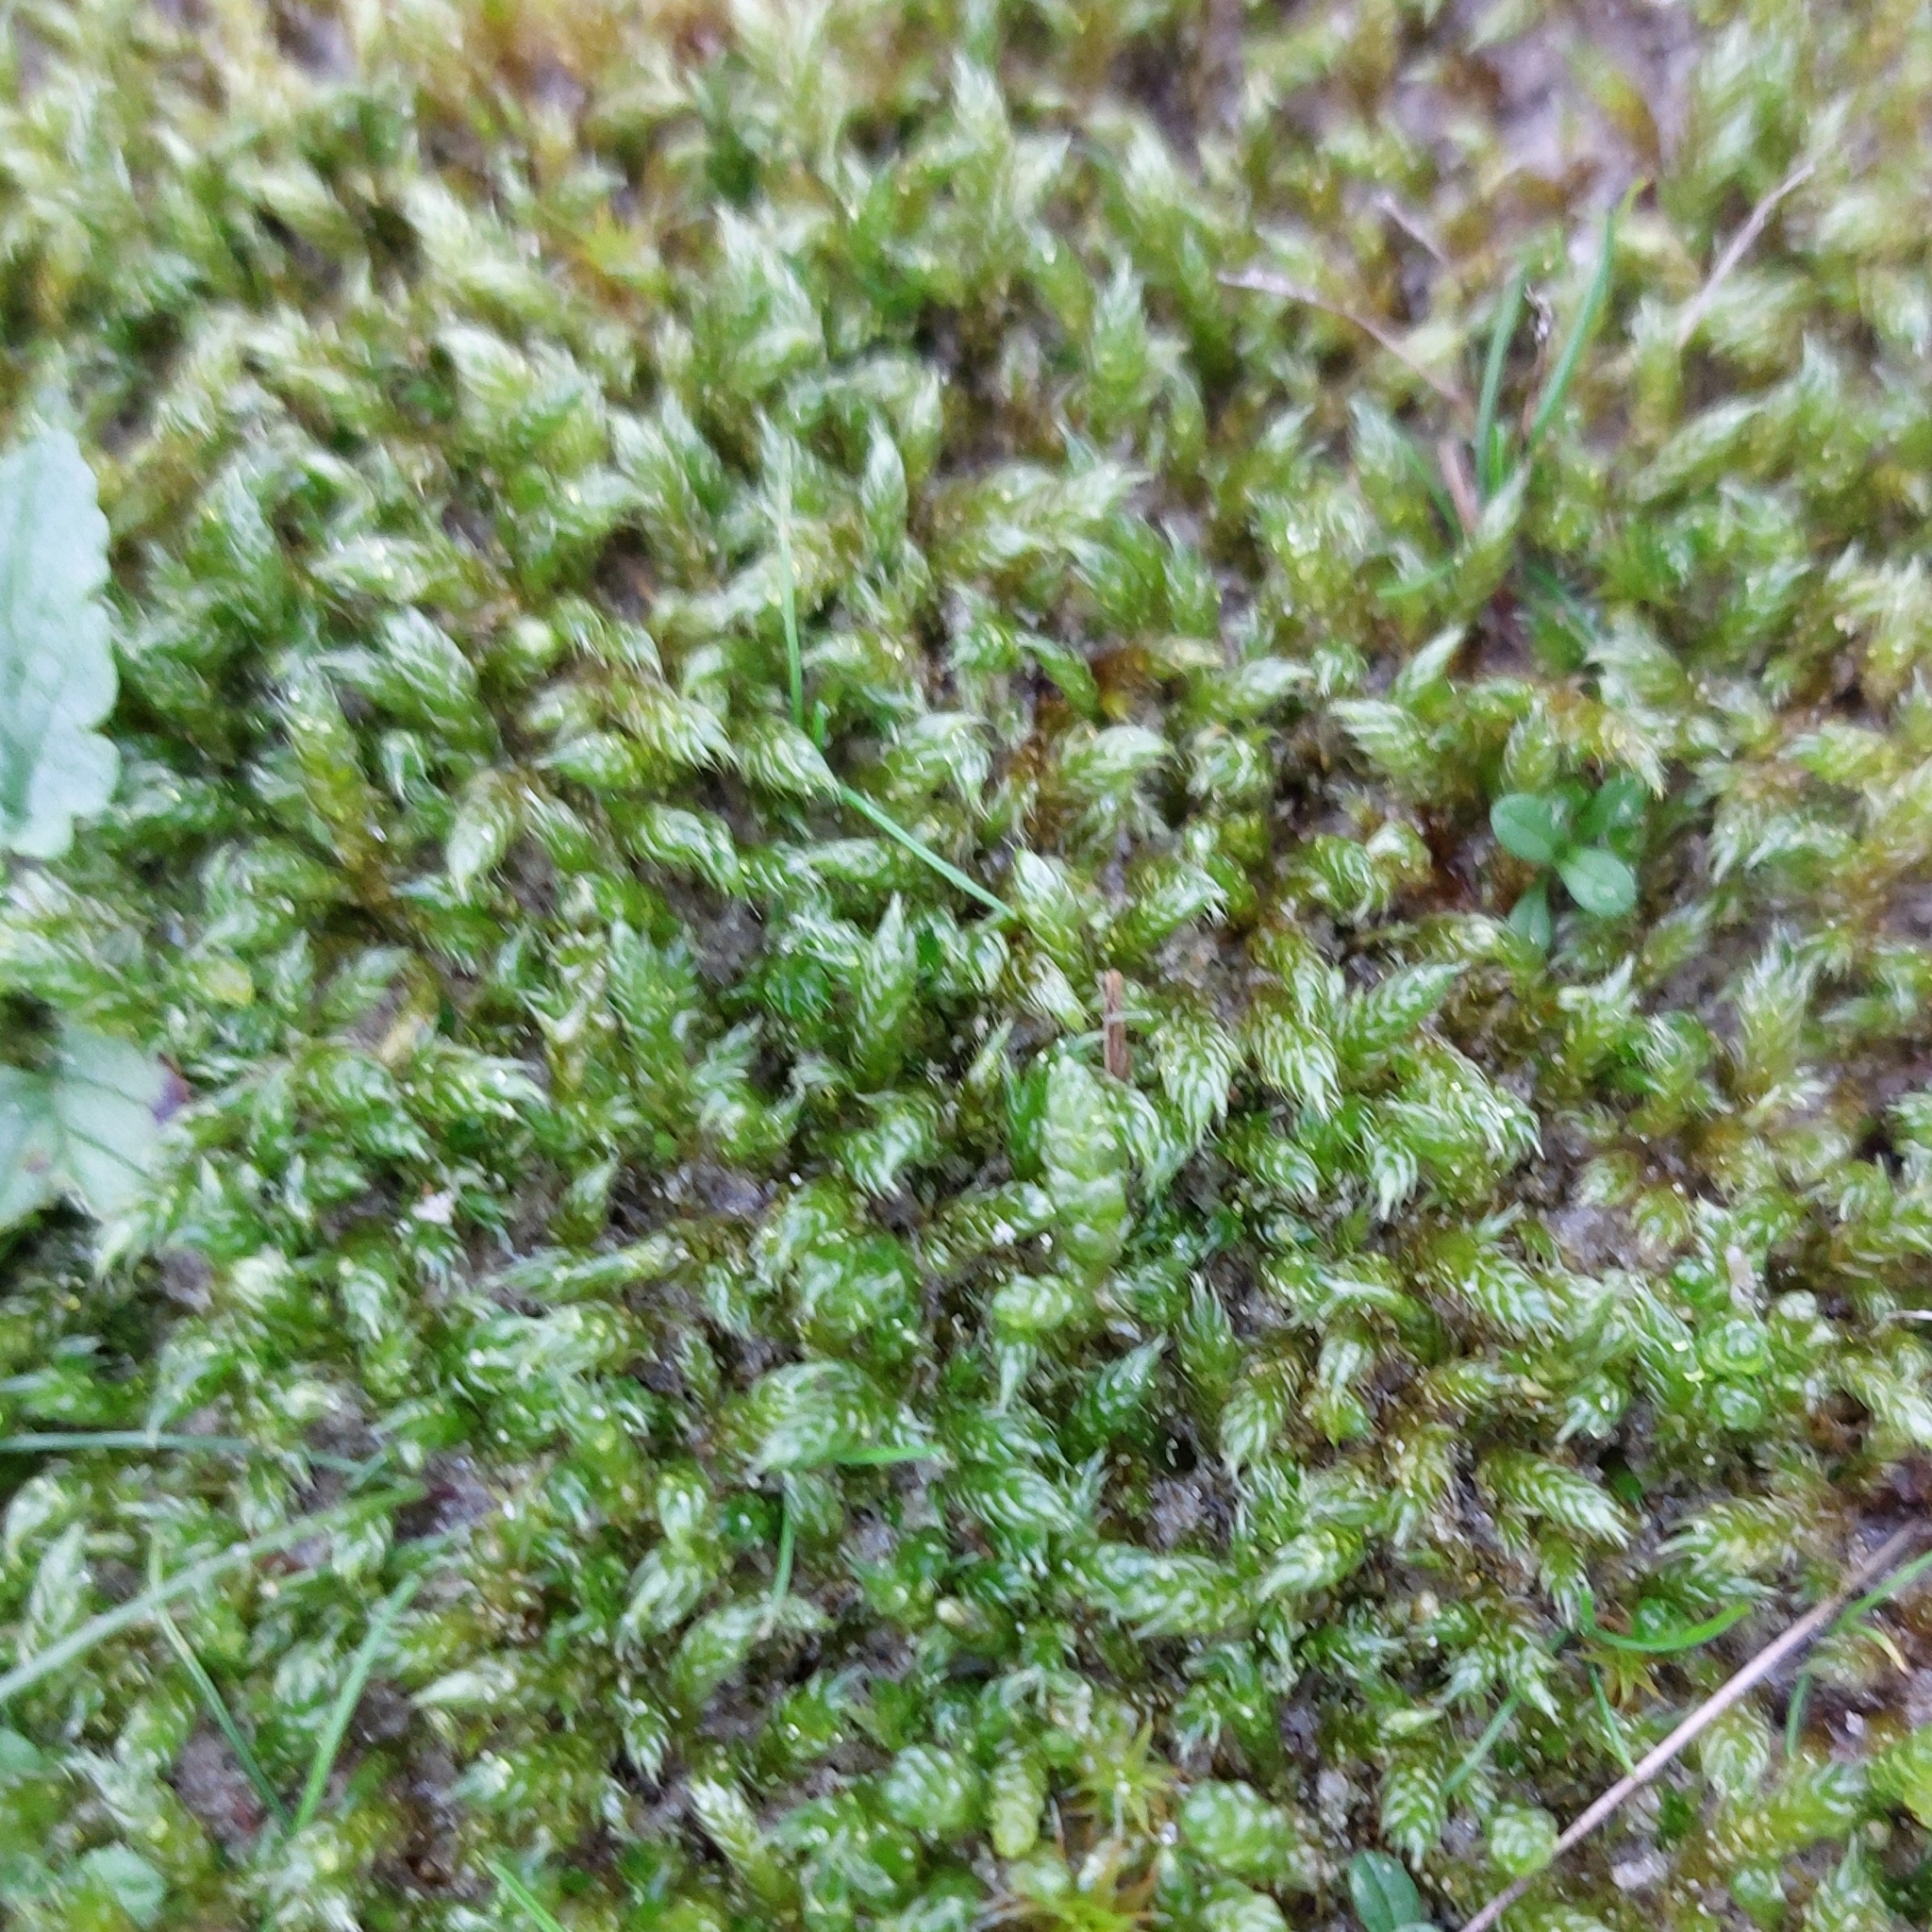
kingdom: Plantae
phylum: Bryophyta
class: Bryopsida
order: Hypnales
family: Hypnaceae
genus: Hypnum
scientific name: Hypnum cupressiforme
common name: Cypress-leaved plait-moss
